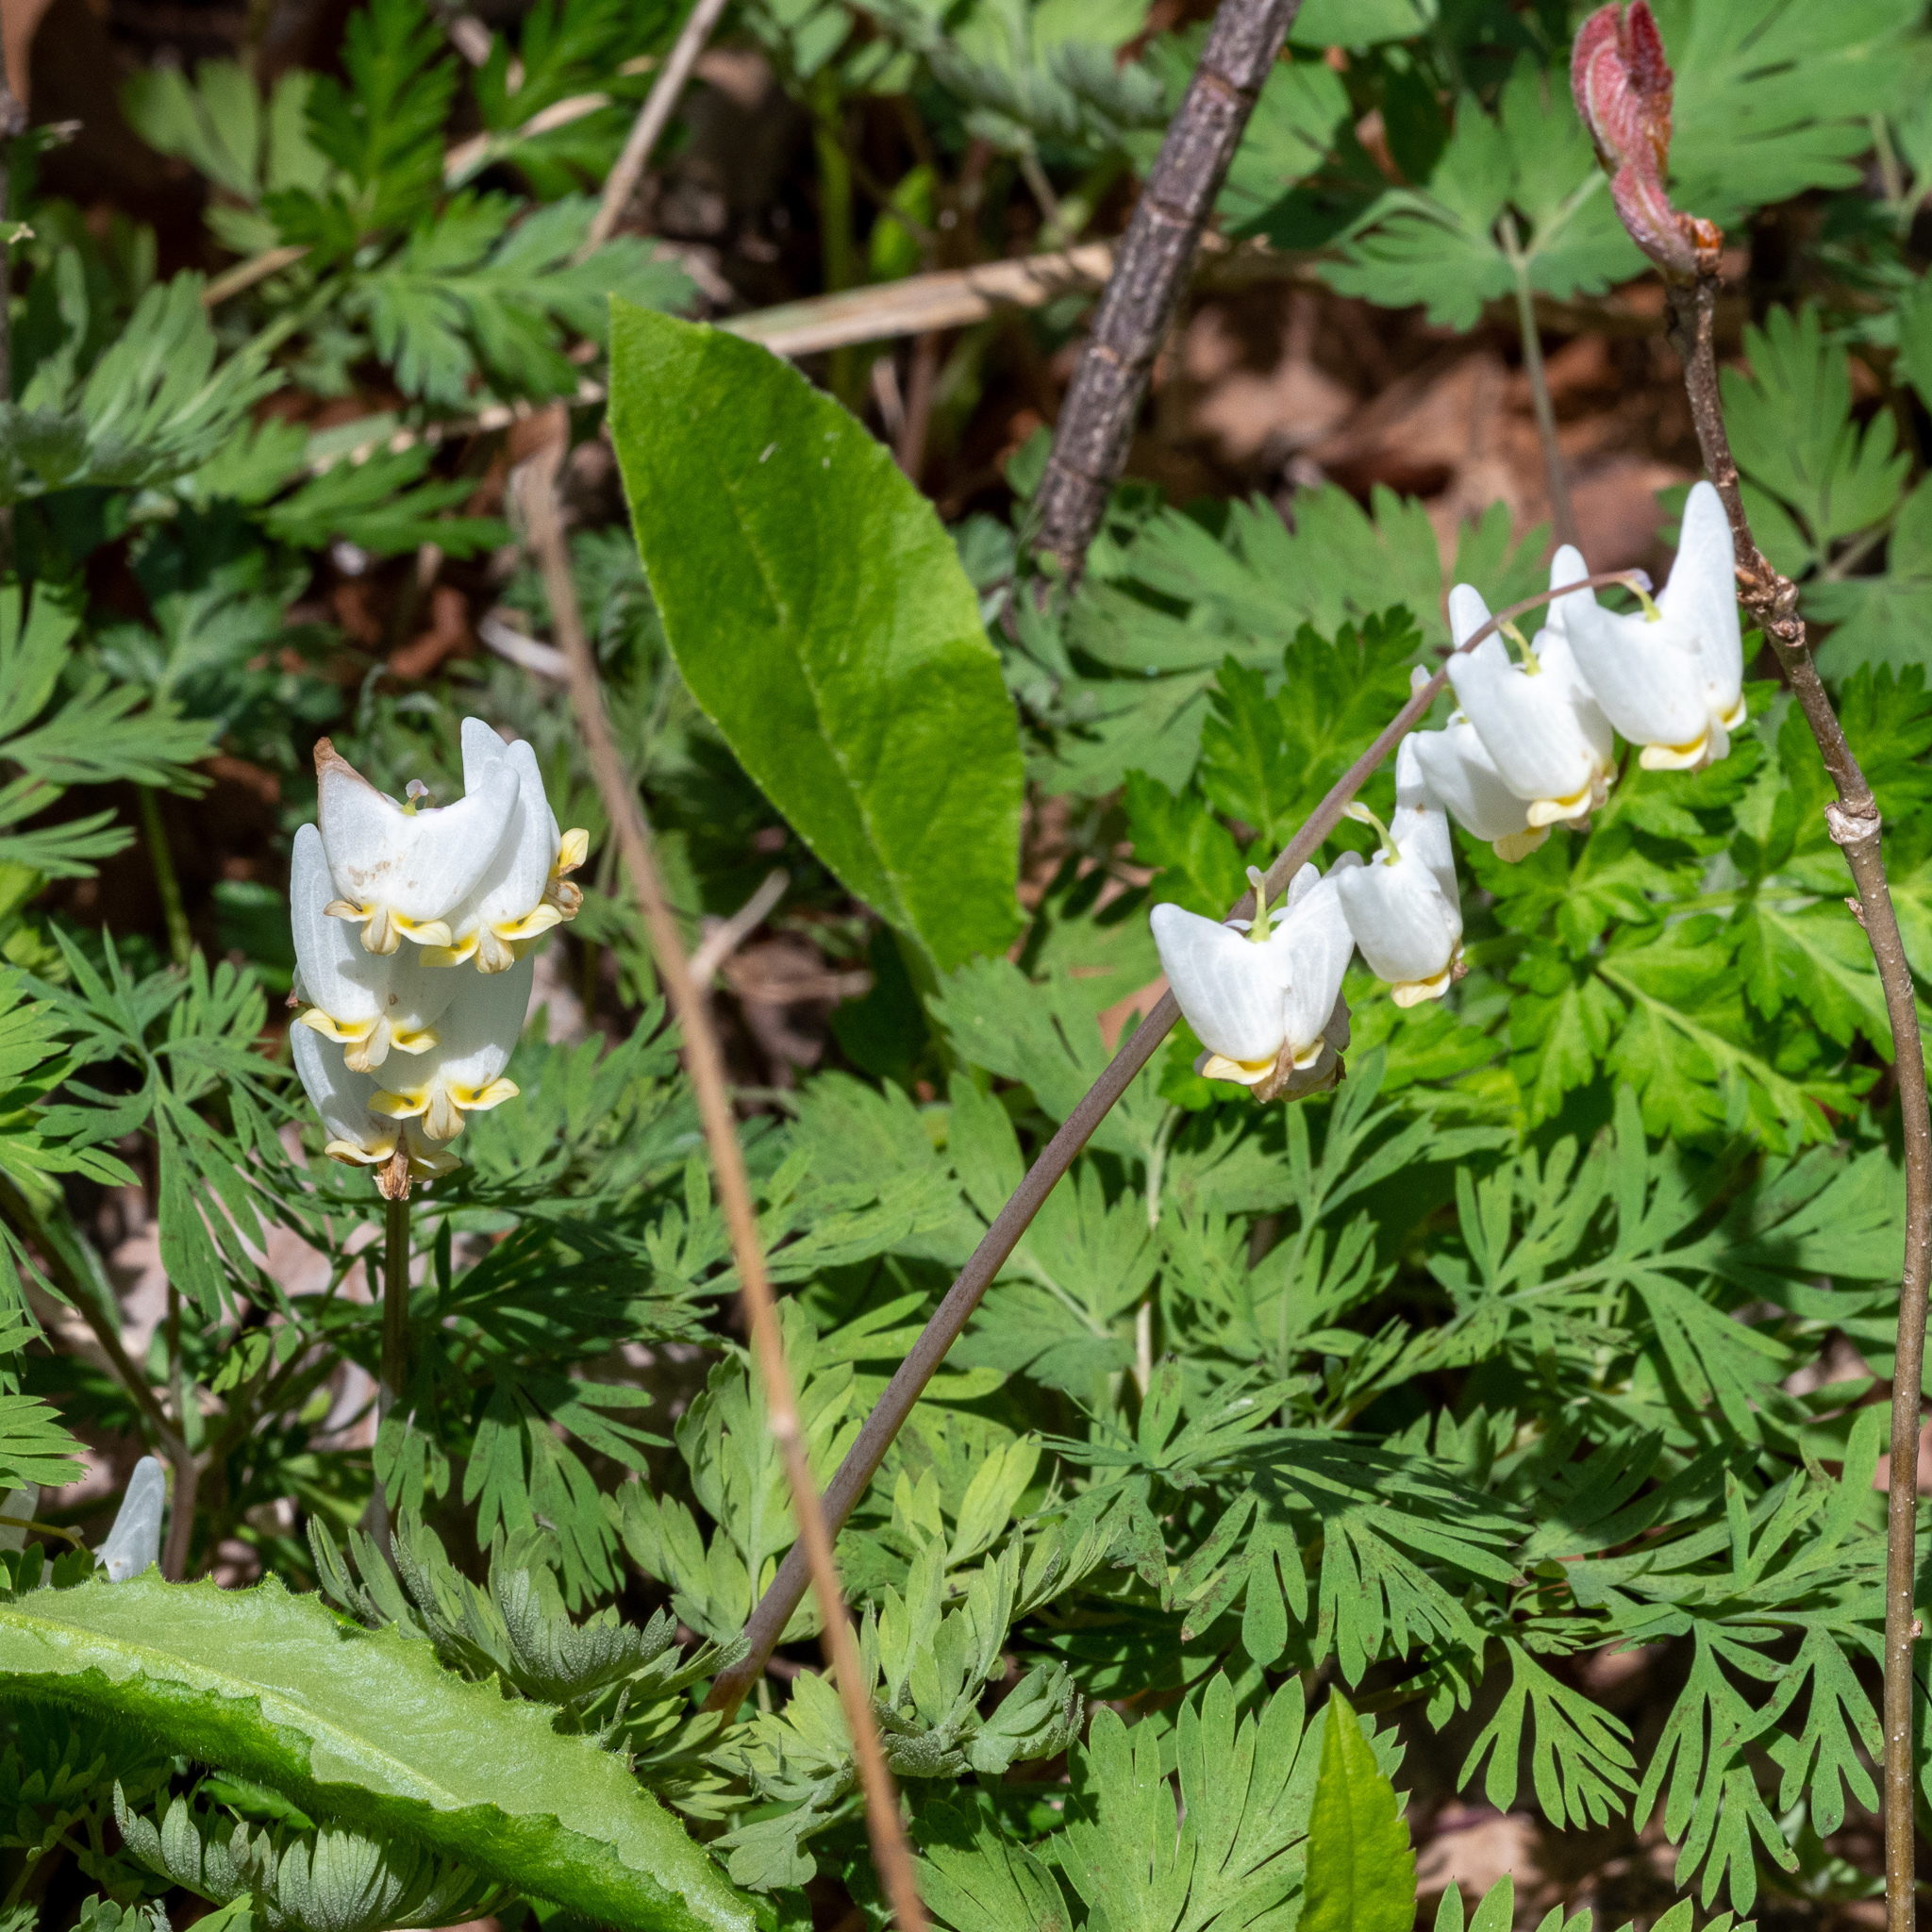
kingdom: Plantae
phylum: Tracheophyta
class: Magnoliopsida
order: Ranunculales
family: Papaveraceae
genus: Dicentra
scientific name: Dicentra cucullaria
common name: Dutchman's breeches
